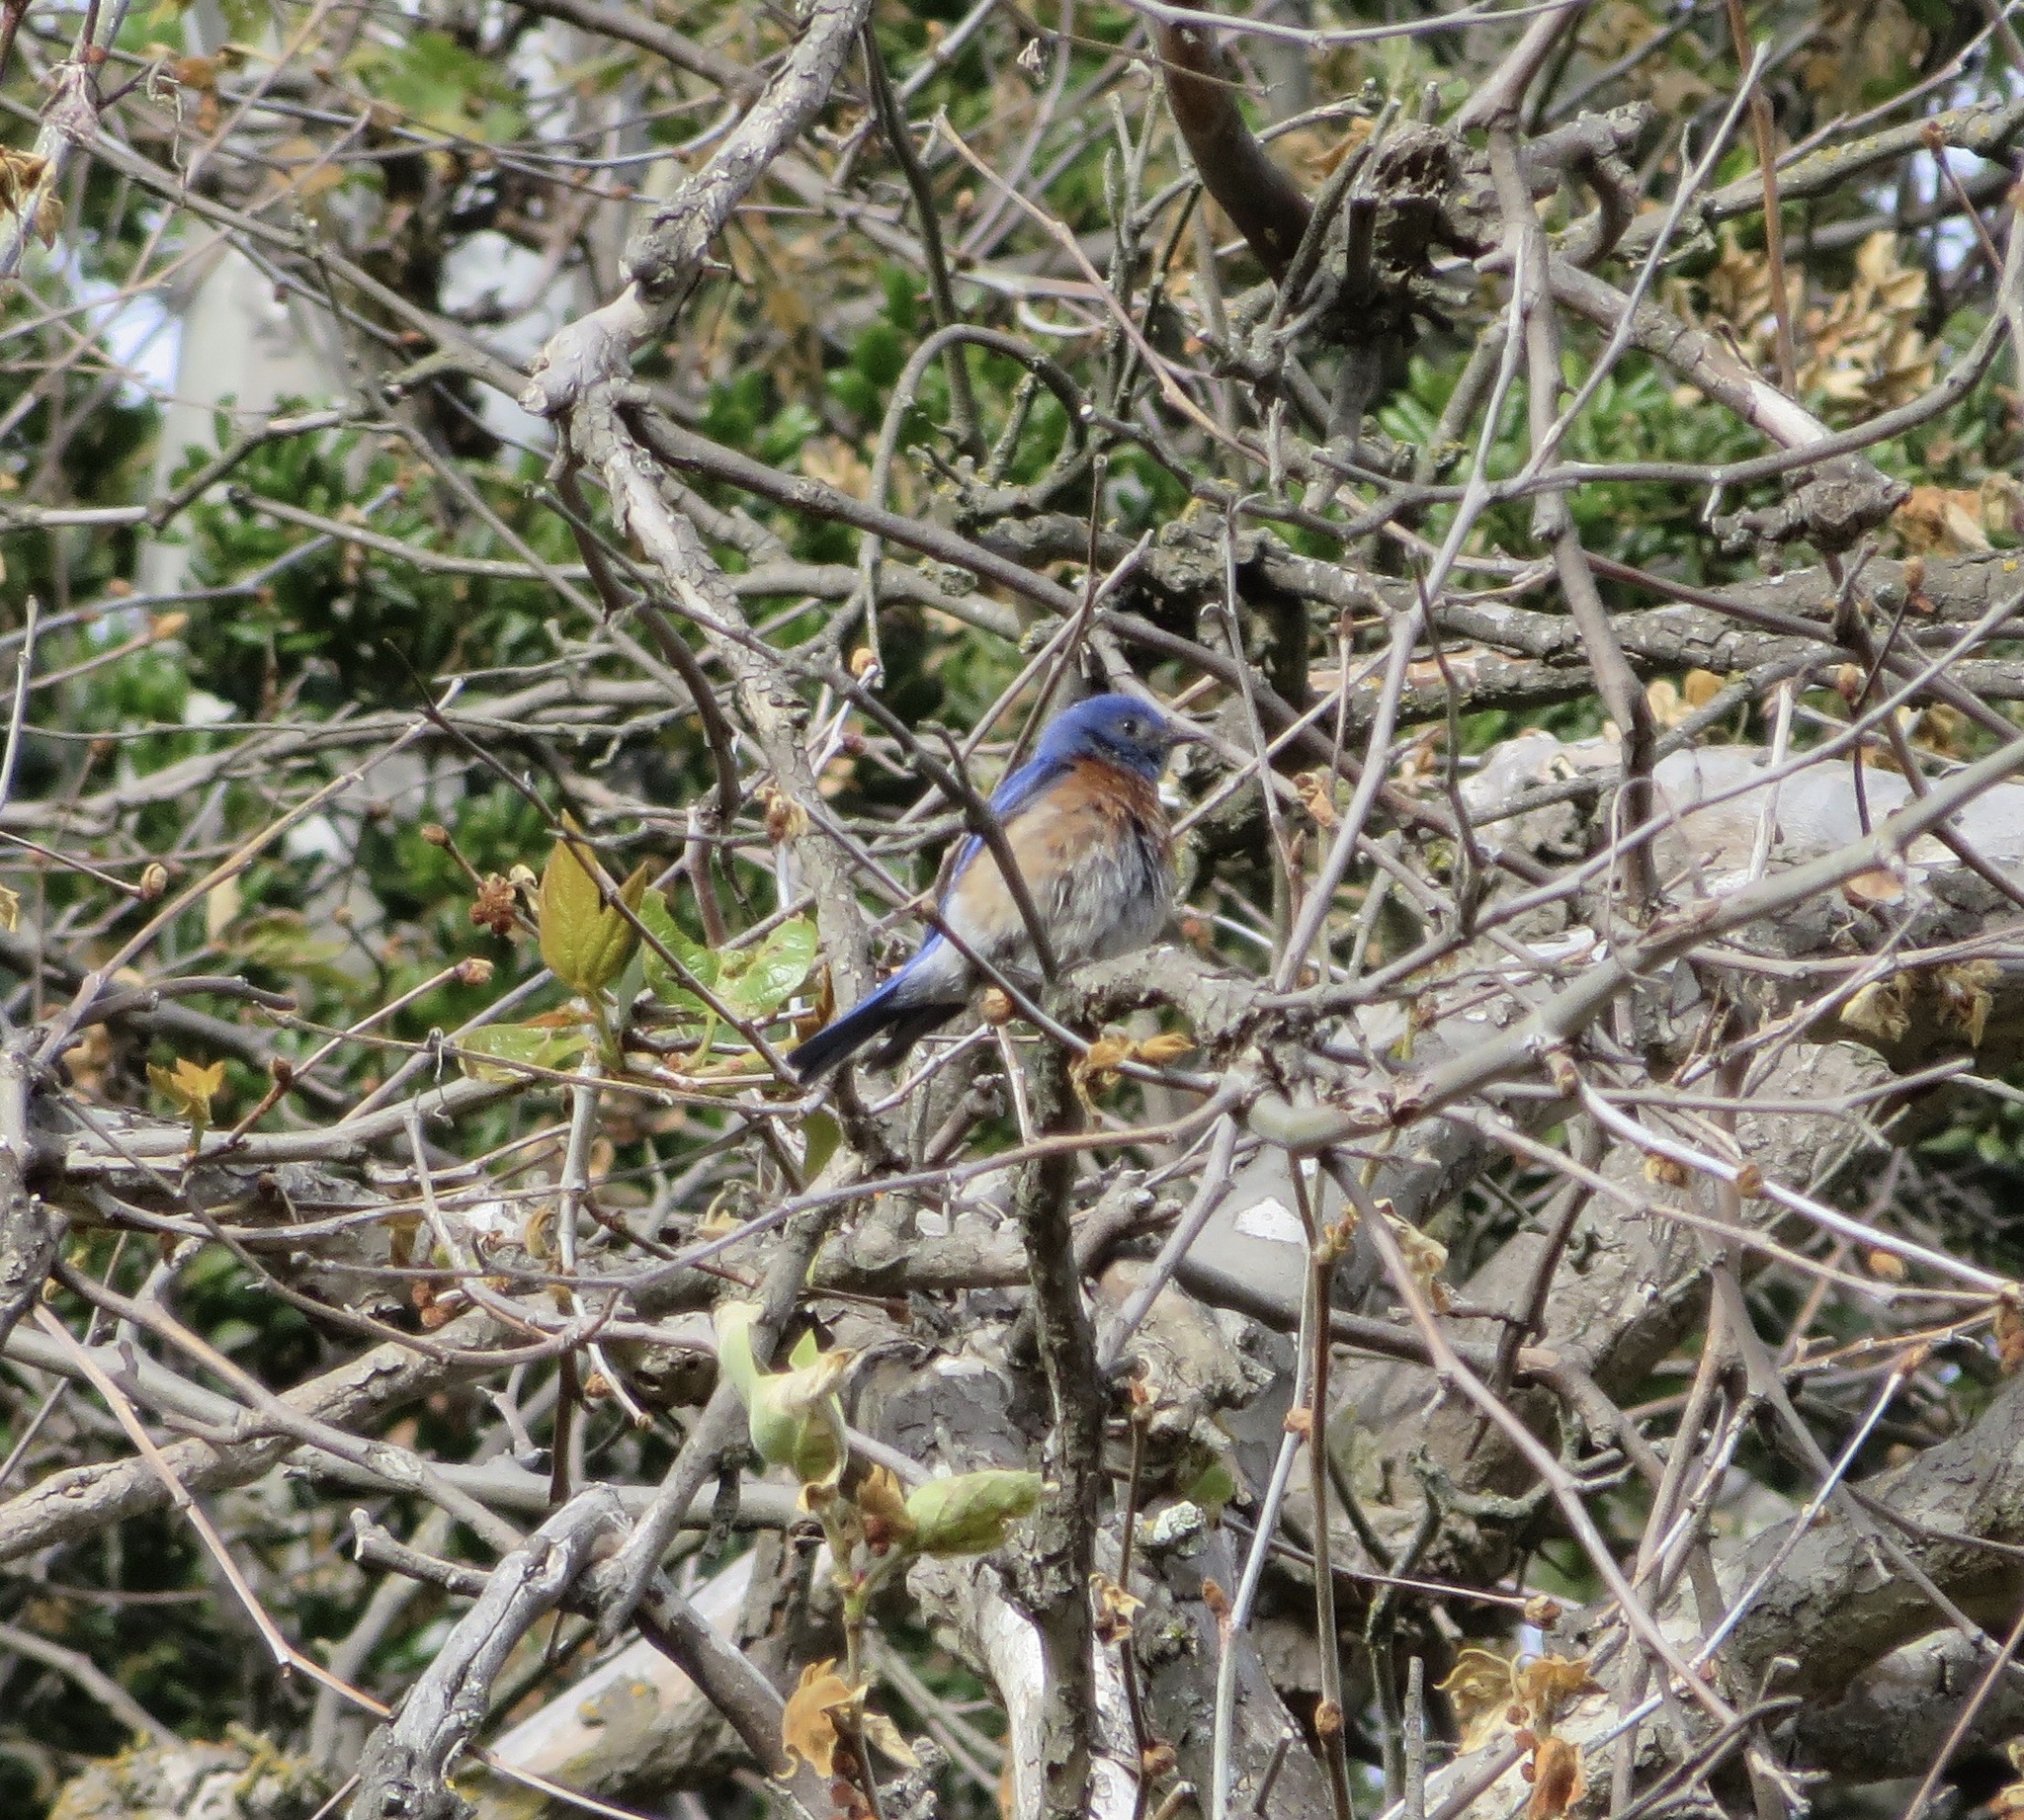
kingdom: Animalia
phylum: Chordata
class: Aves
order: Passeriformes
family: Turdidae
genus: Sialia
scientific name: Sialia mexicana
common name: Western bluebird
